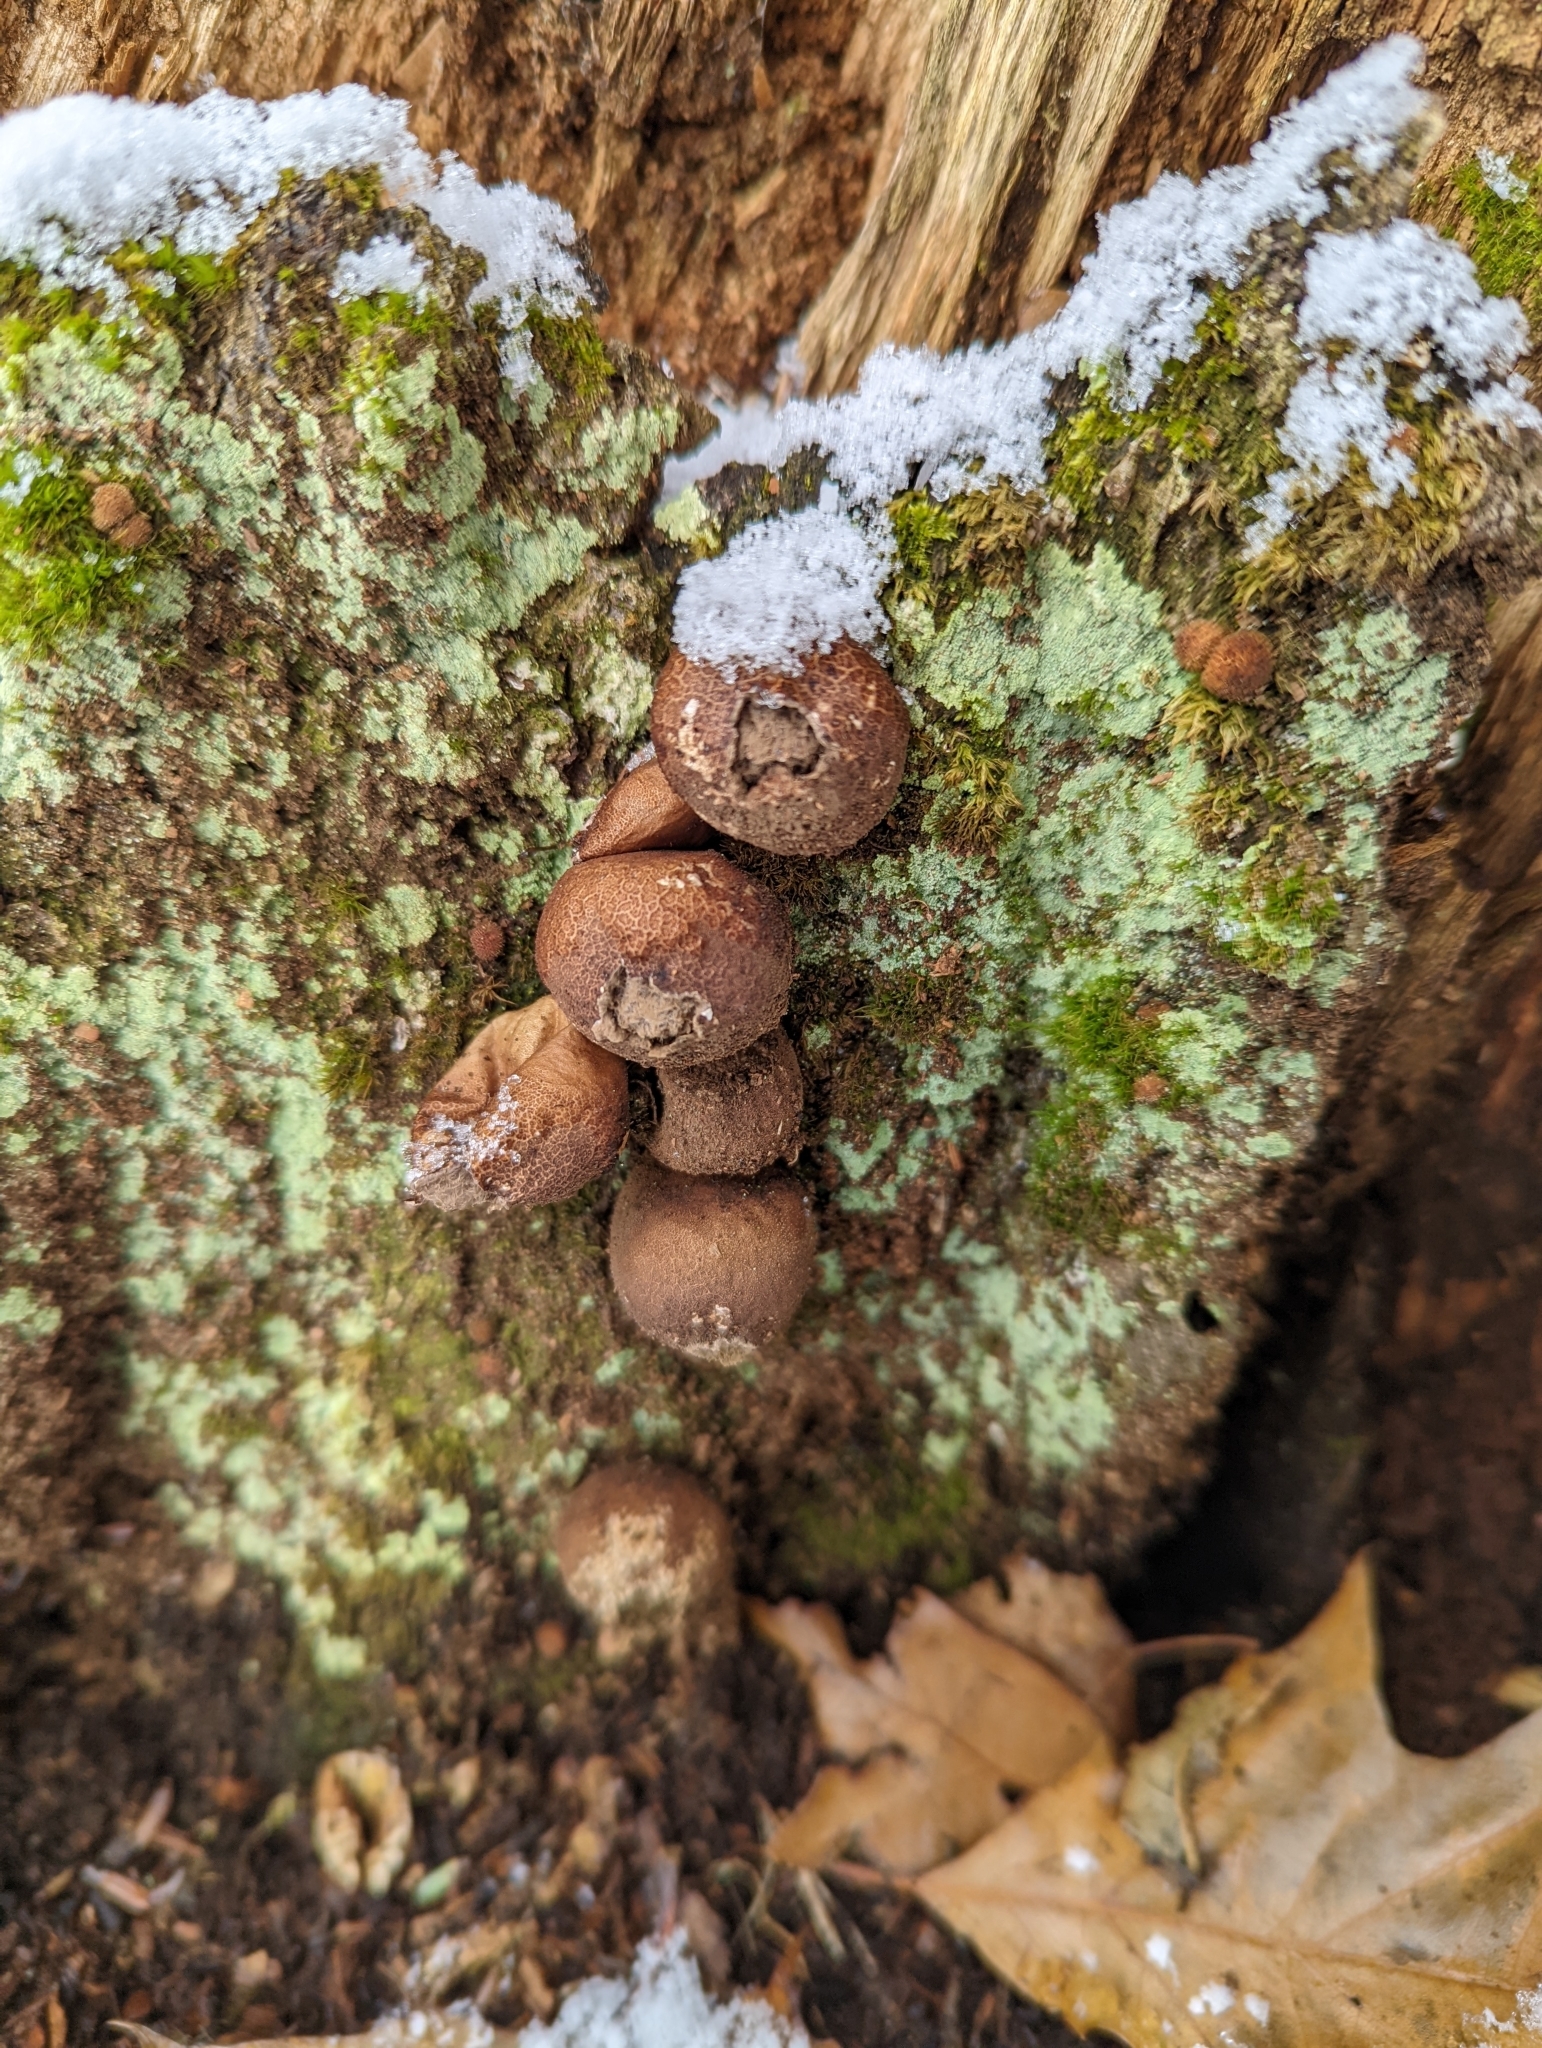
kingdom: Fungi
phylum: Basidiomycota
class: Agaricomycetes
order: Agaricales
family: Lycoperdaceae
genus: Apioperdon
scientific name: Apioperdon pyriforme
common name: Pear-shaped puffball
